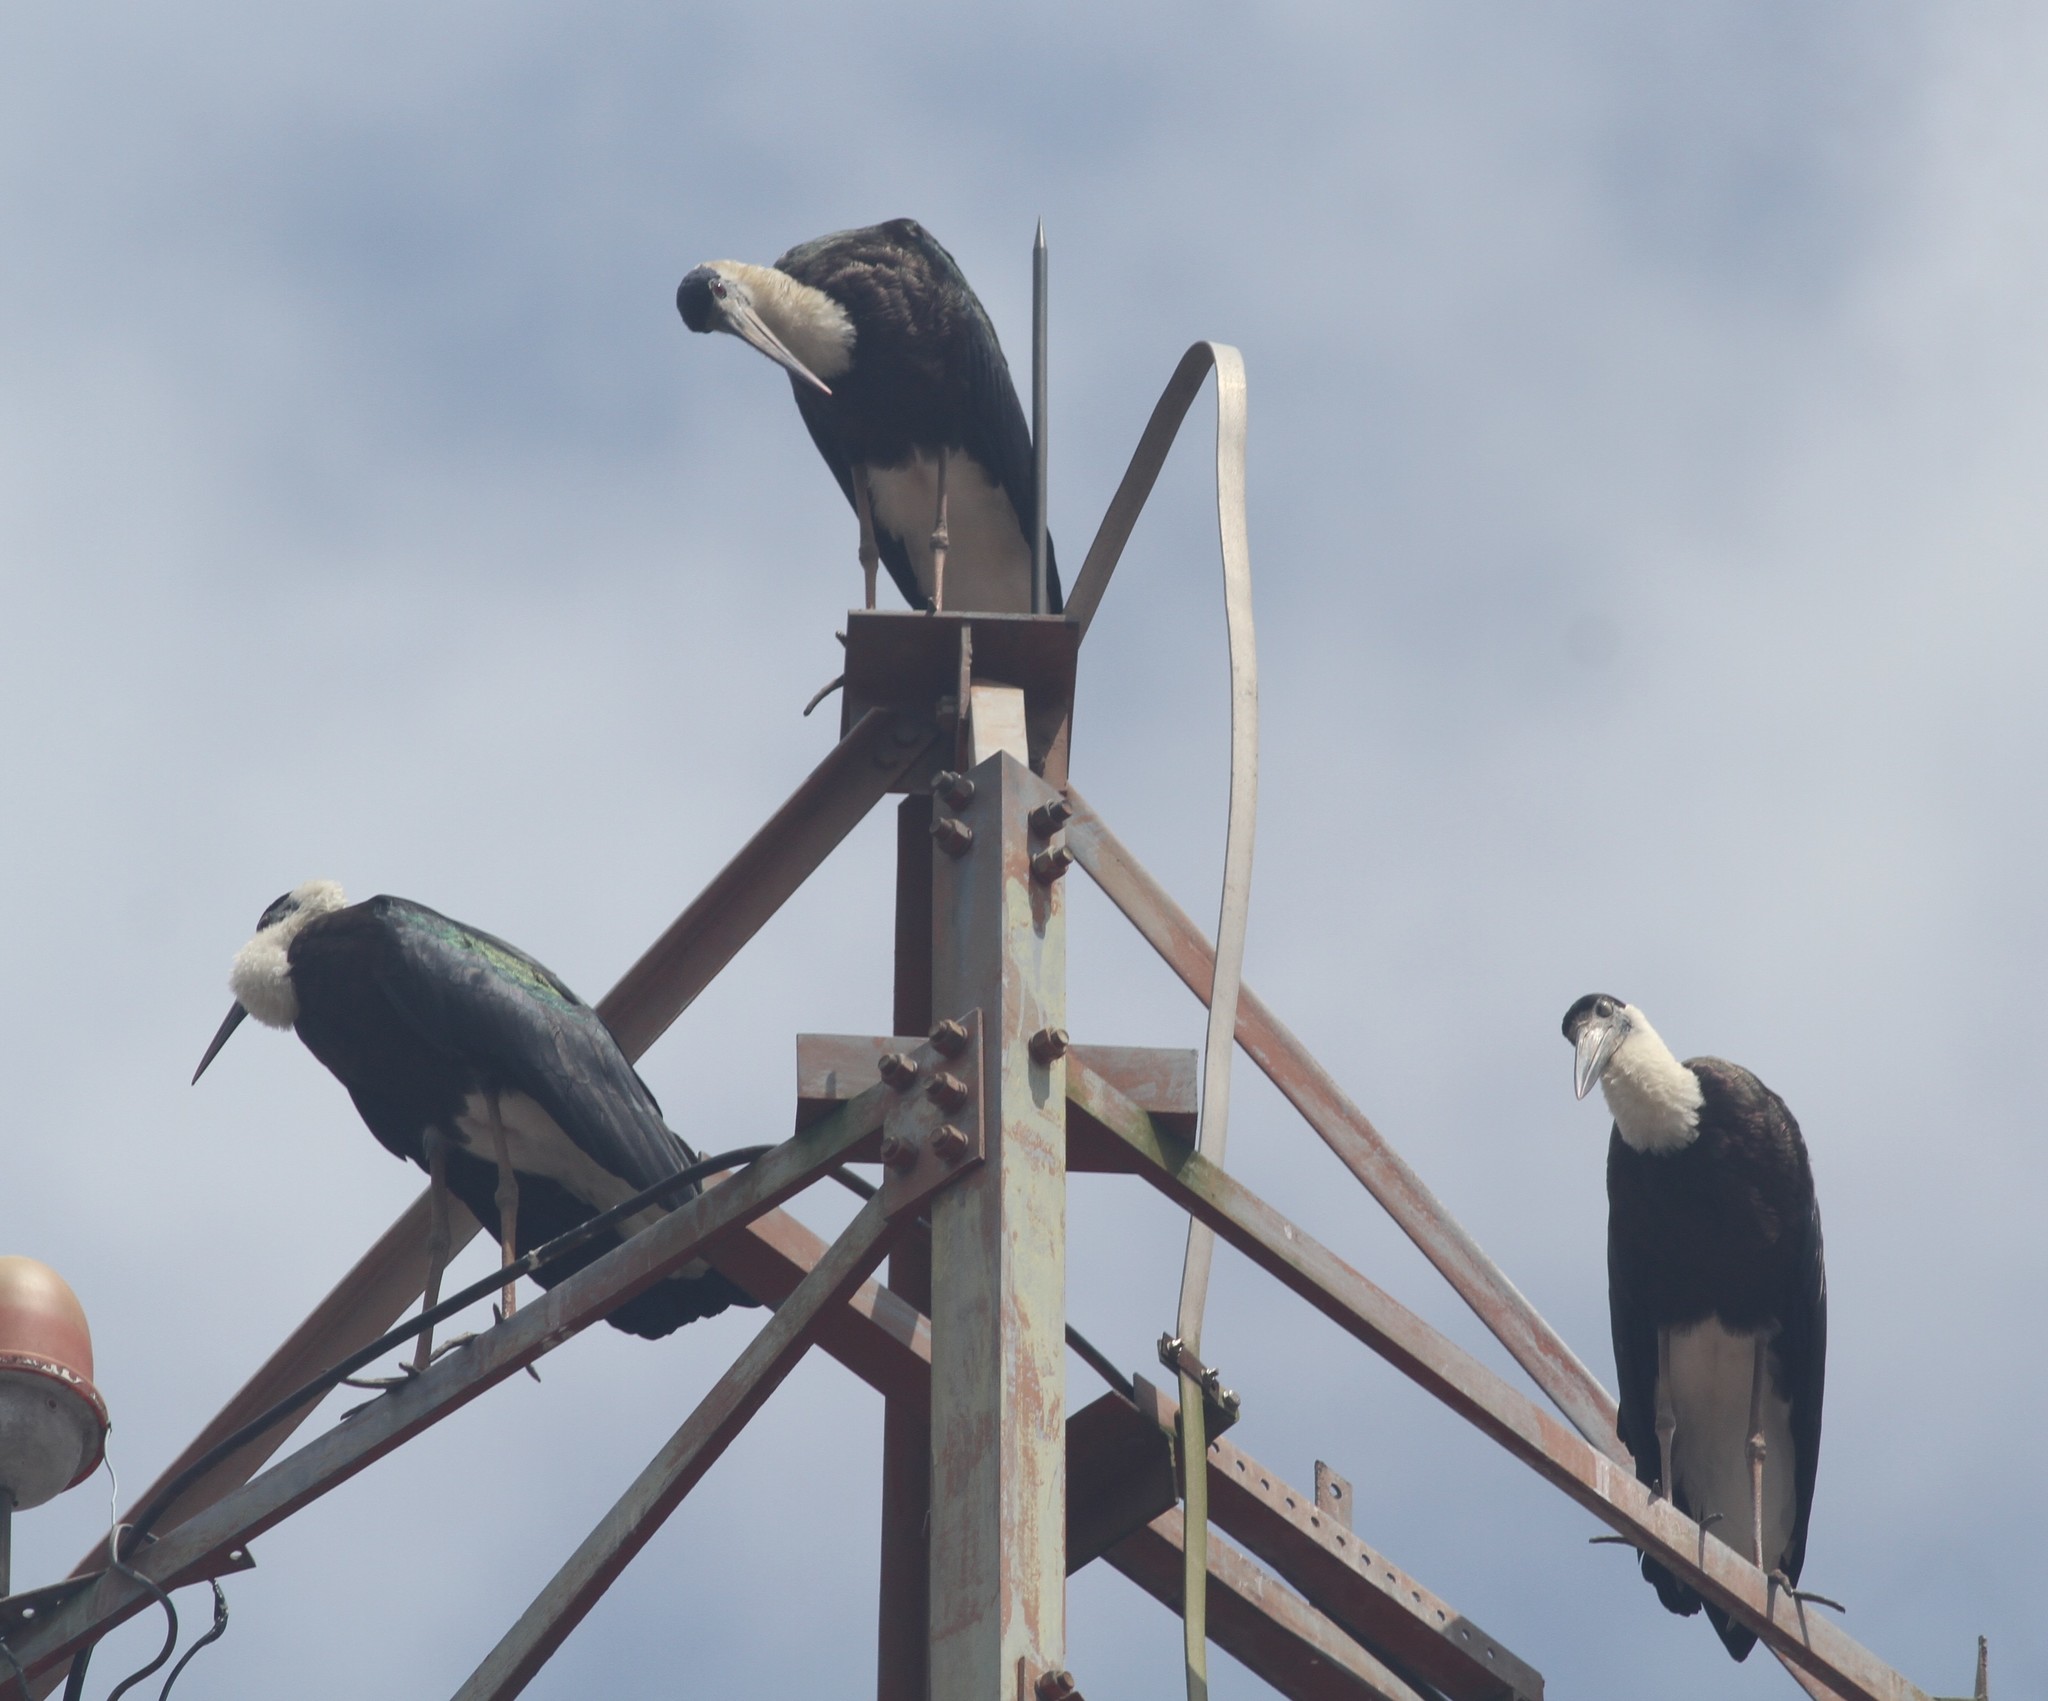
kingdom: Animalia
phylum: Chordata
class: Aves
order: Ciconiiformes
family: Ciconiidae
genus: Ciconia
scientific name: Ciconia episcopus
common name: Woolly-necked stork
